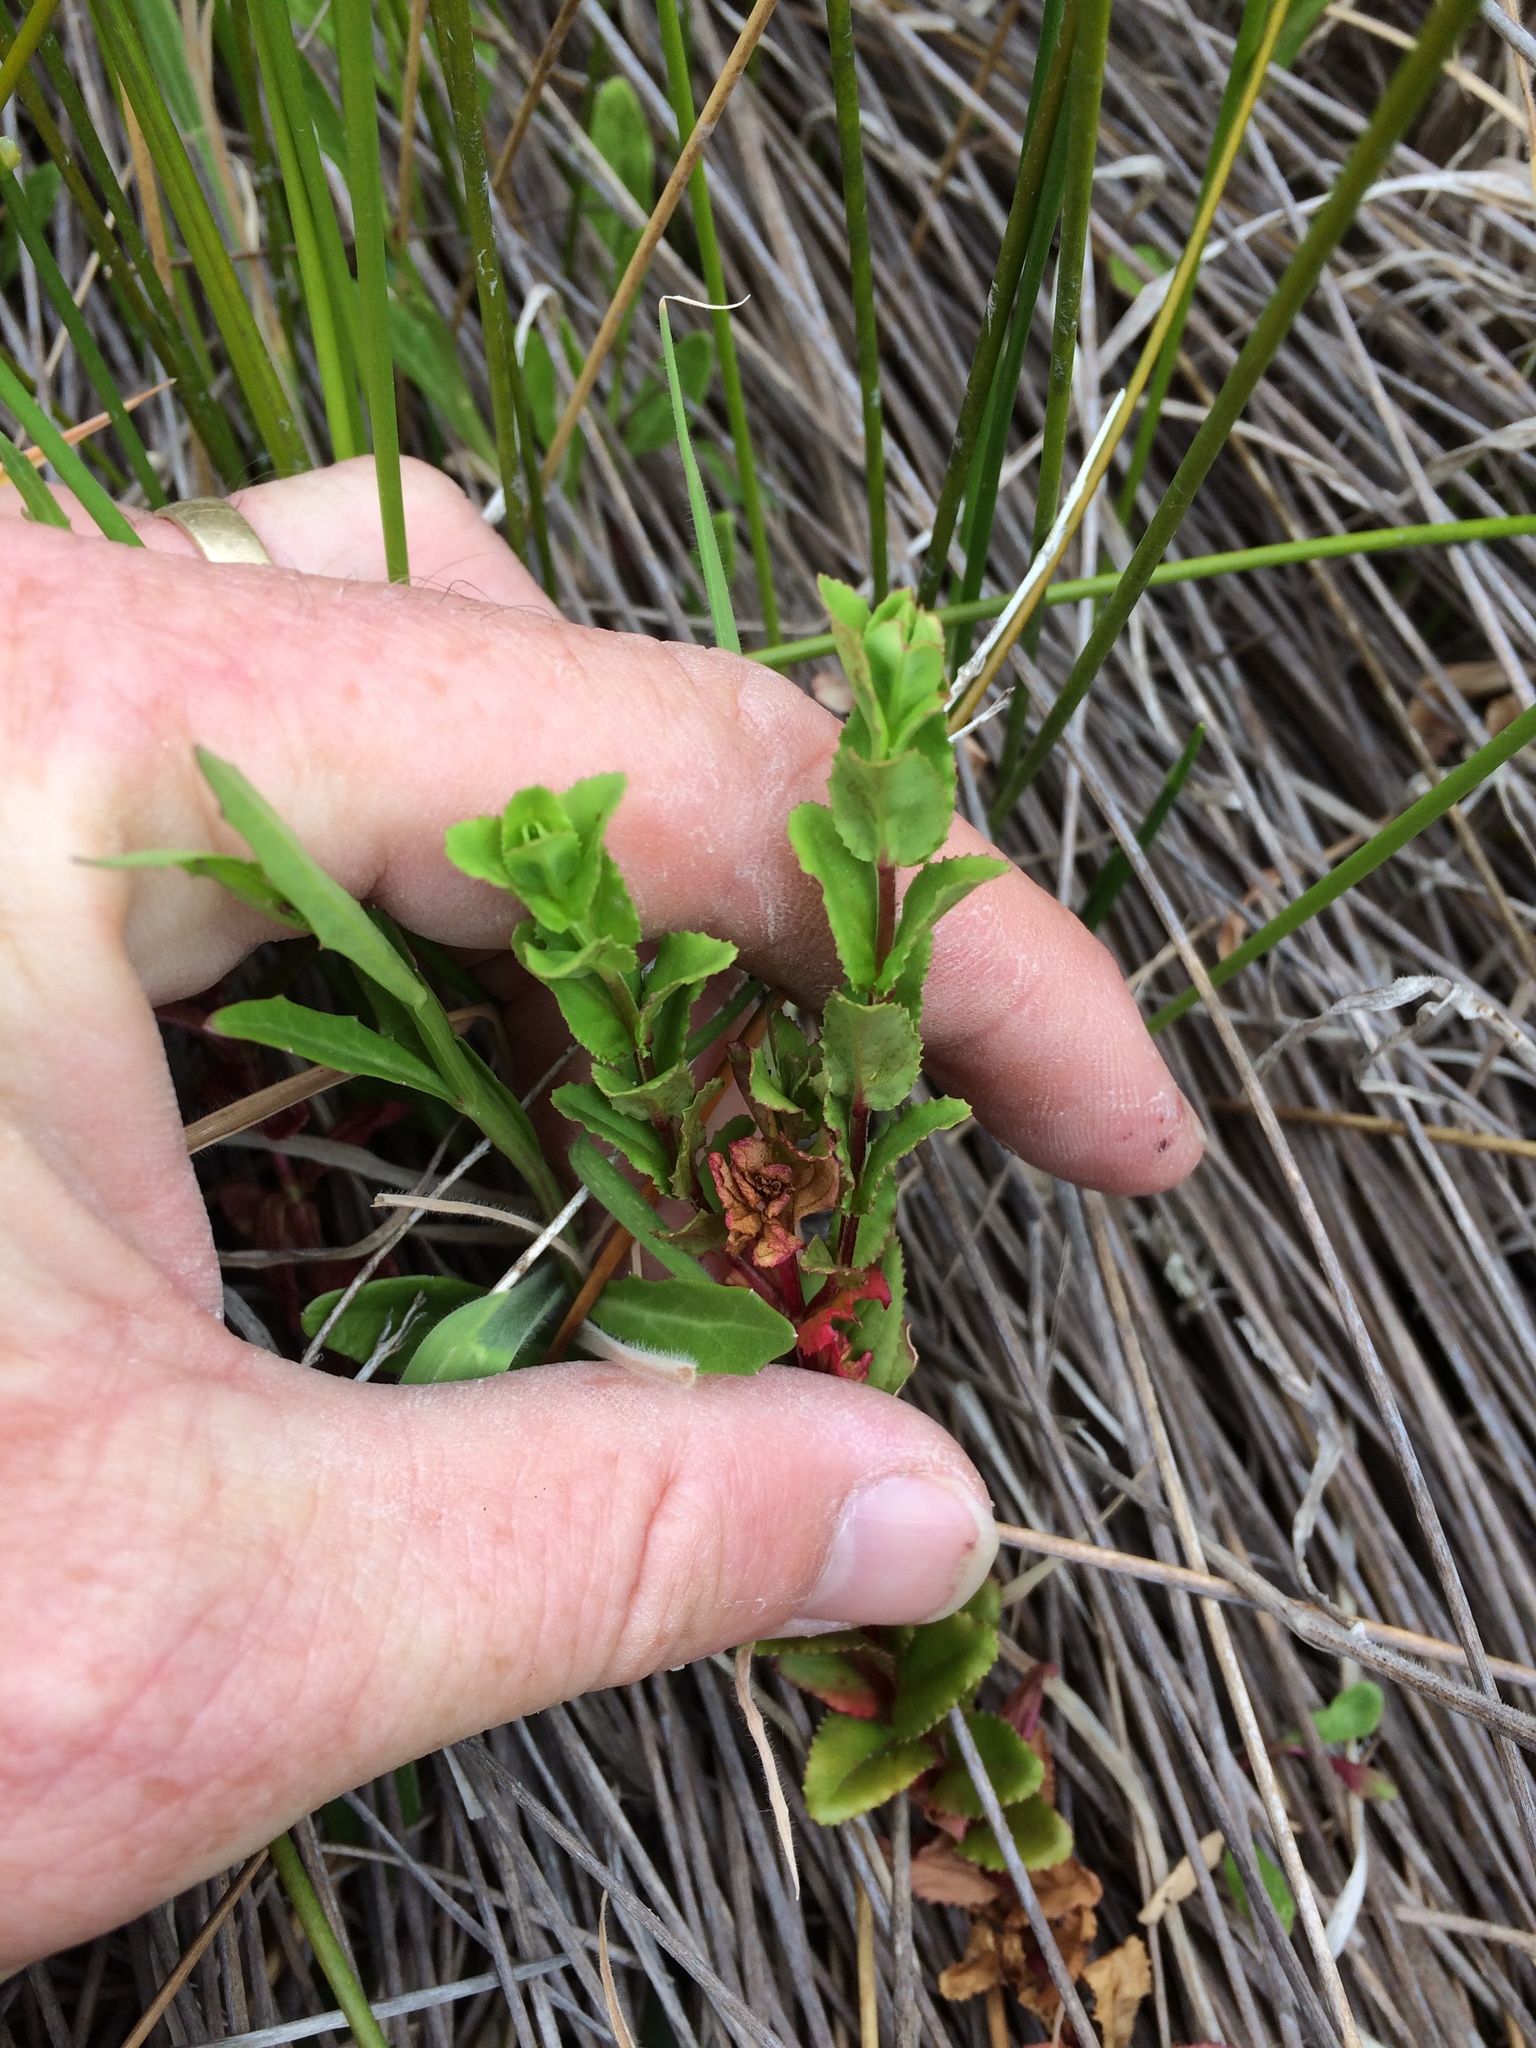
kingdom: Plantae
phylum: Tracheophyta
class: Magnoliopsida
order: Myrtales
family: Onagraceae
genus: Epilobium
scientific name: Epilobium billardiereanum
